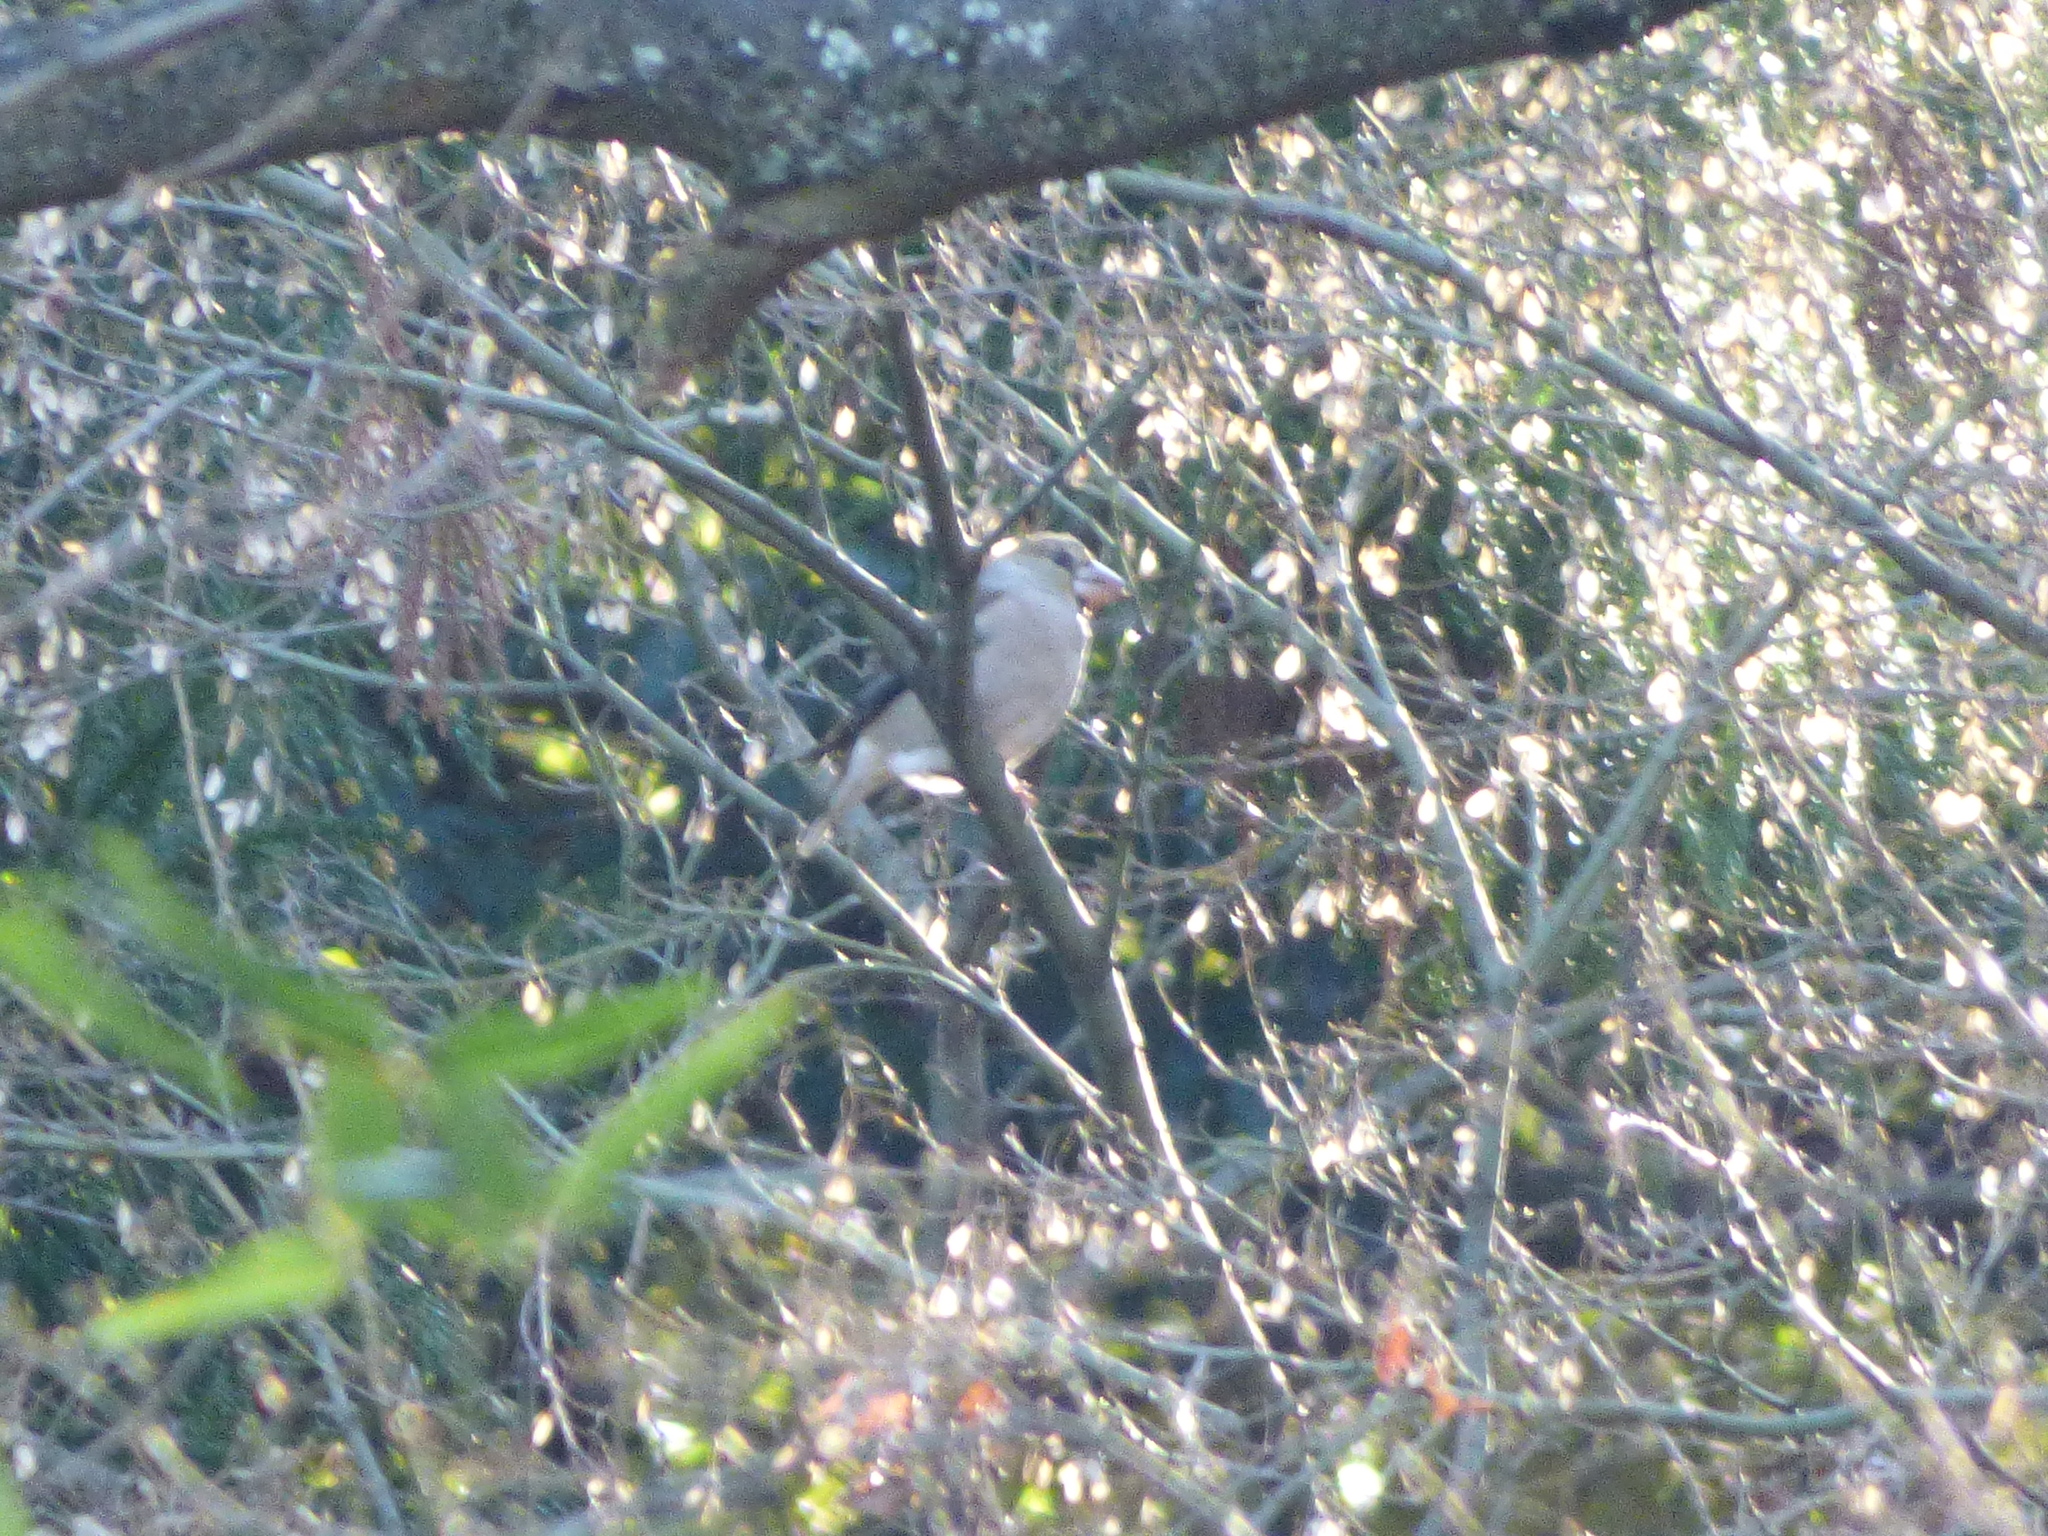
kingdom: Animalia
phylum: Chordata
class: Aves
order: Passeriformes
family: Fringillidae
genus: Coccothraustes
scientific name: Coccothraustes coccothraustes
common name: Hawfinch
